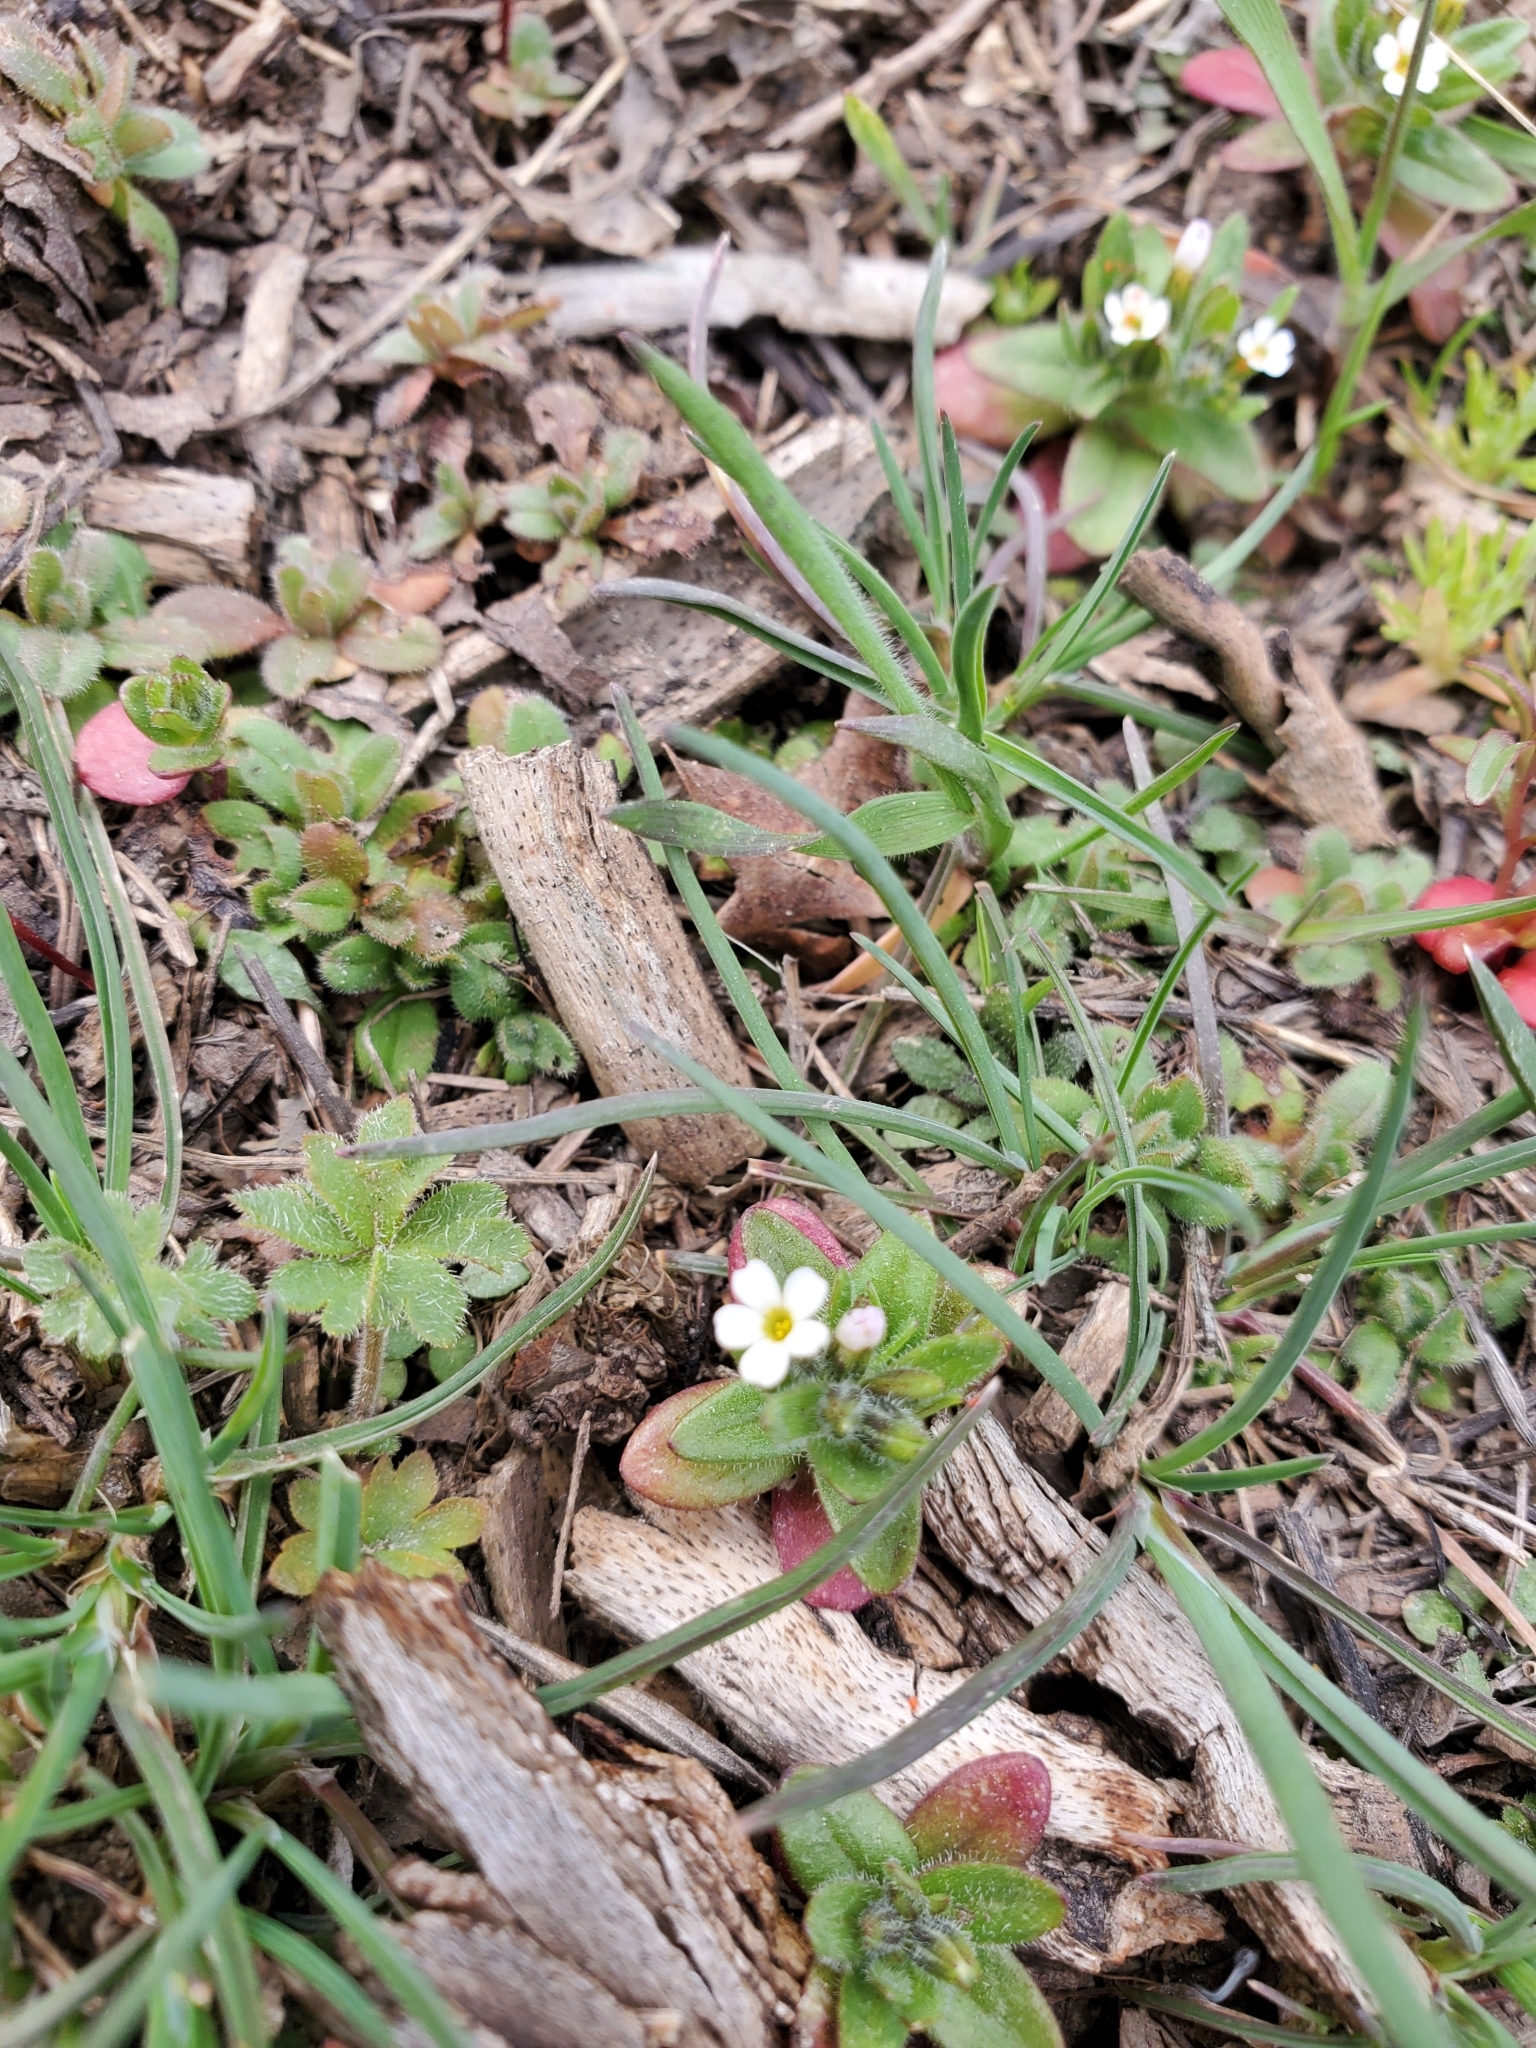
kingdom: Plantae
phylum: Tracheophyta
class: Magnoliopsida
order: Ericales
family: Polemoniaceae
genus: Phlox
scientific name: Phlox gracilis
